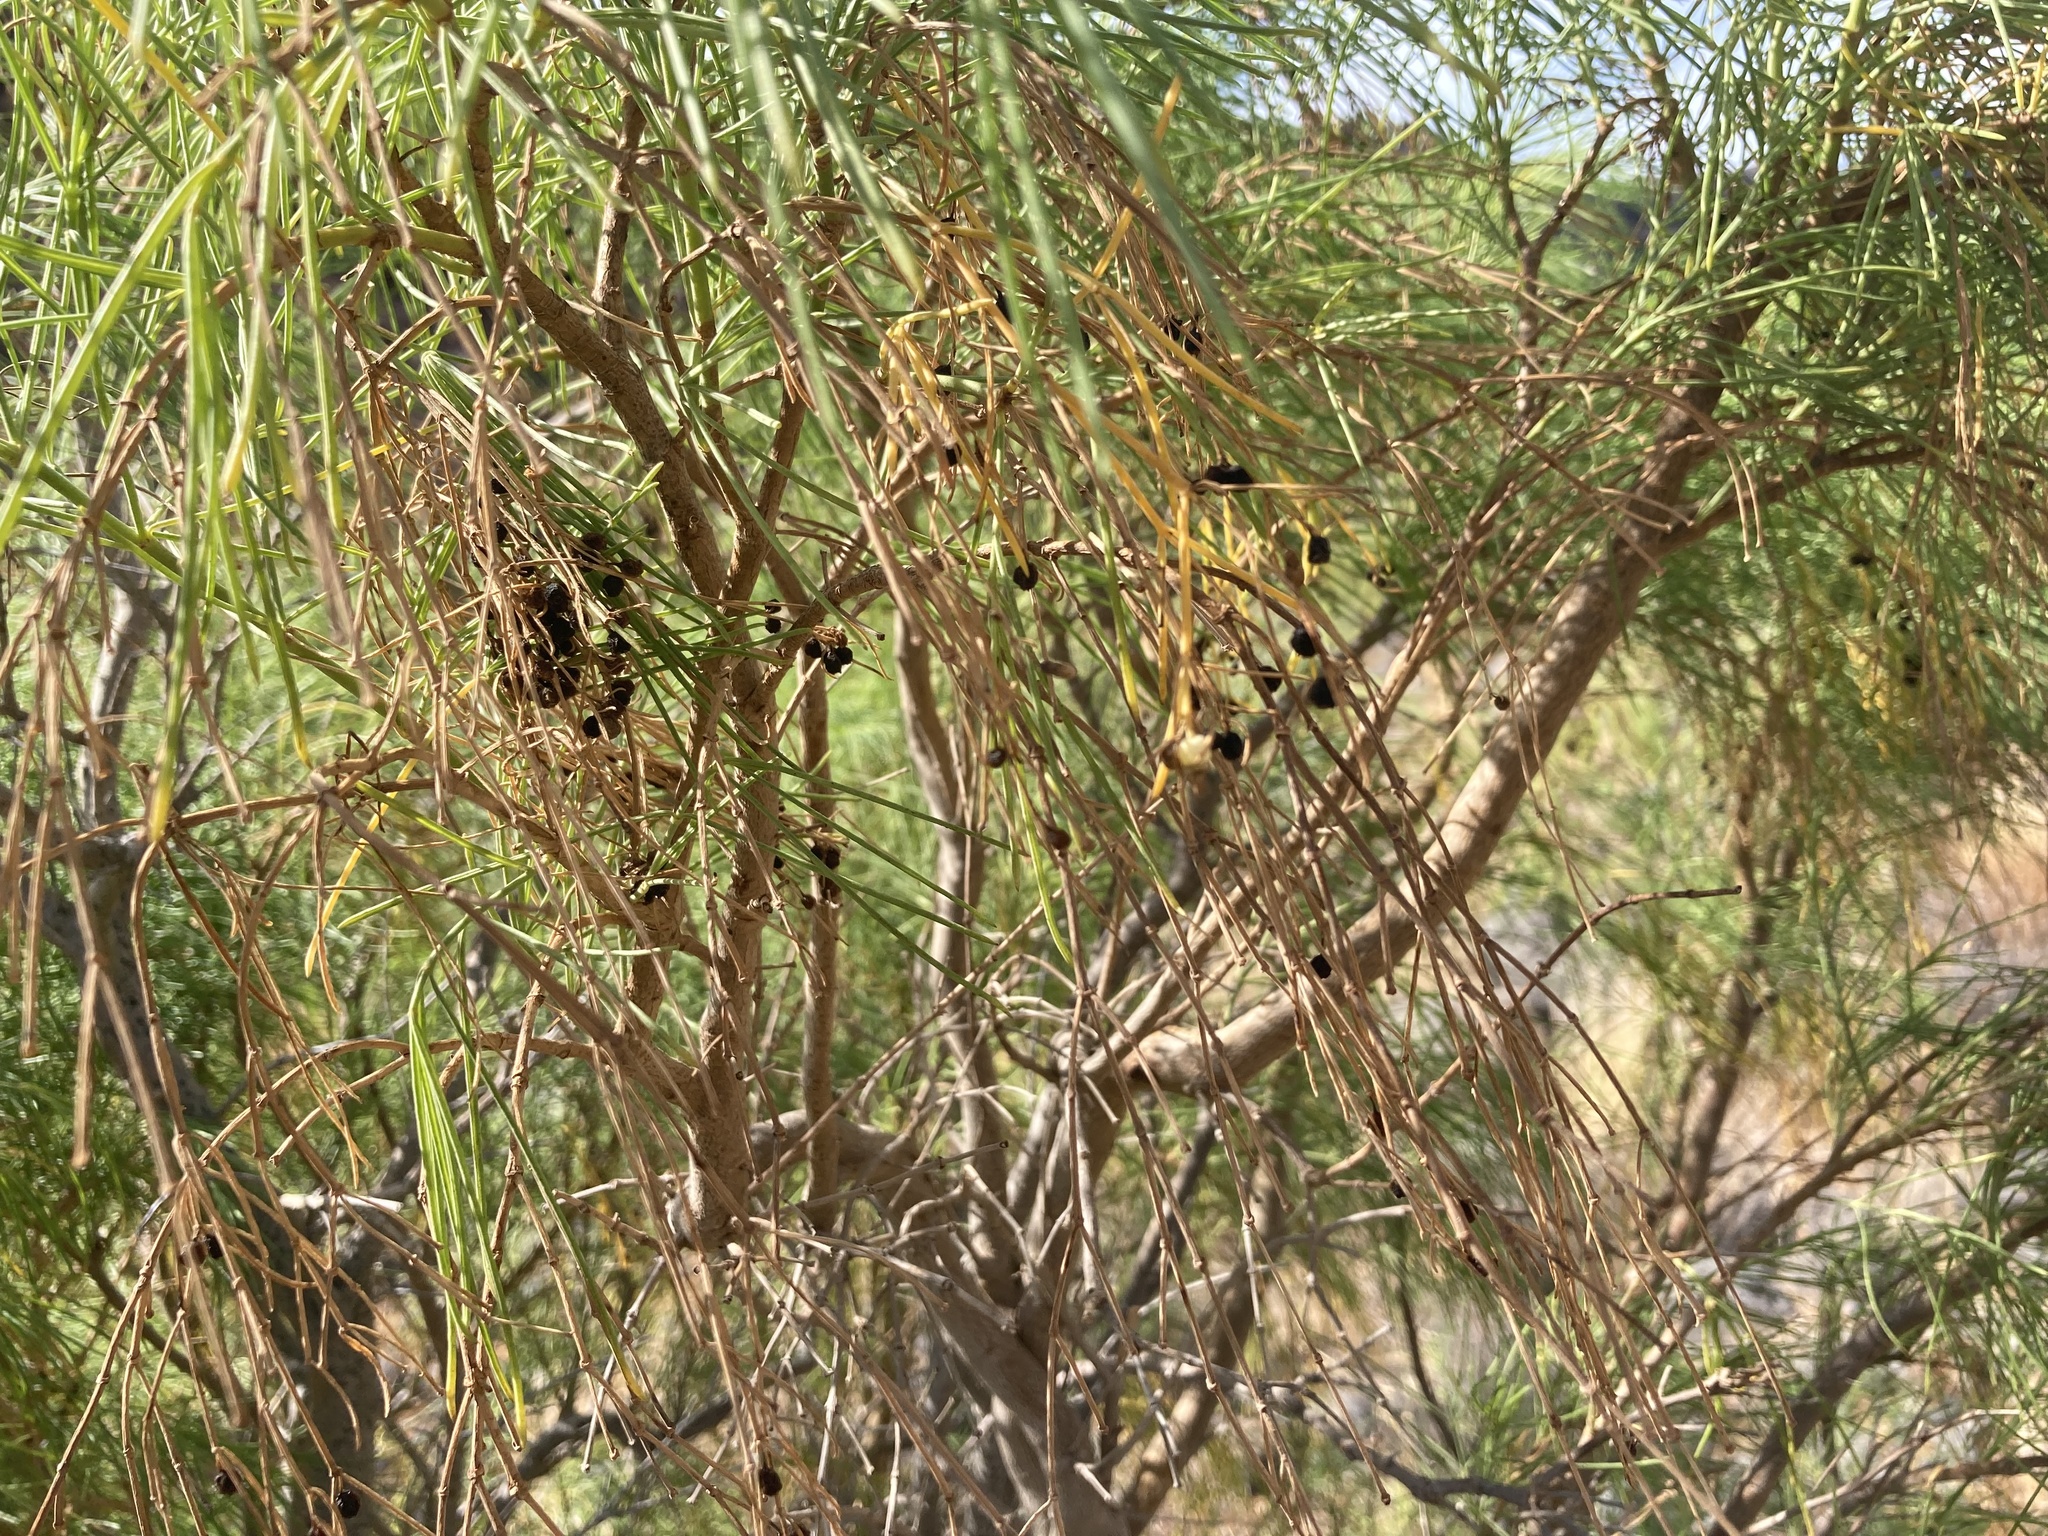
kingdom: Plantae
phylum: Tracheophyta
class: Magnoliopsida
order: Gentianales
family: Rubiaceae
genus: Plocama
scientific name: Plocama pendula
